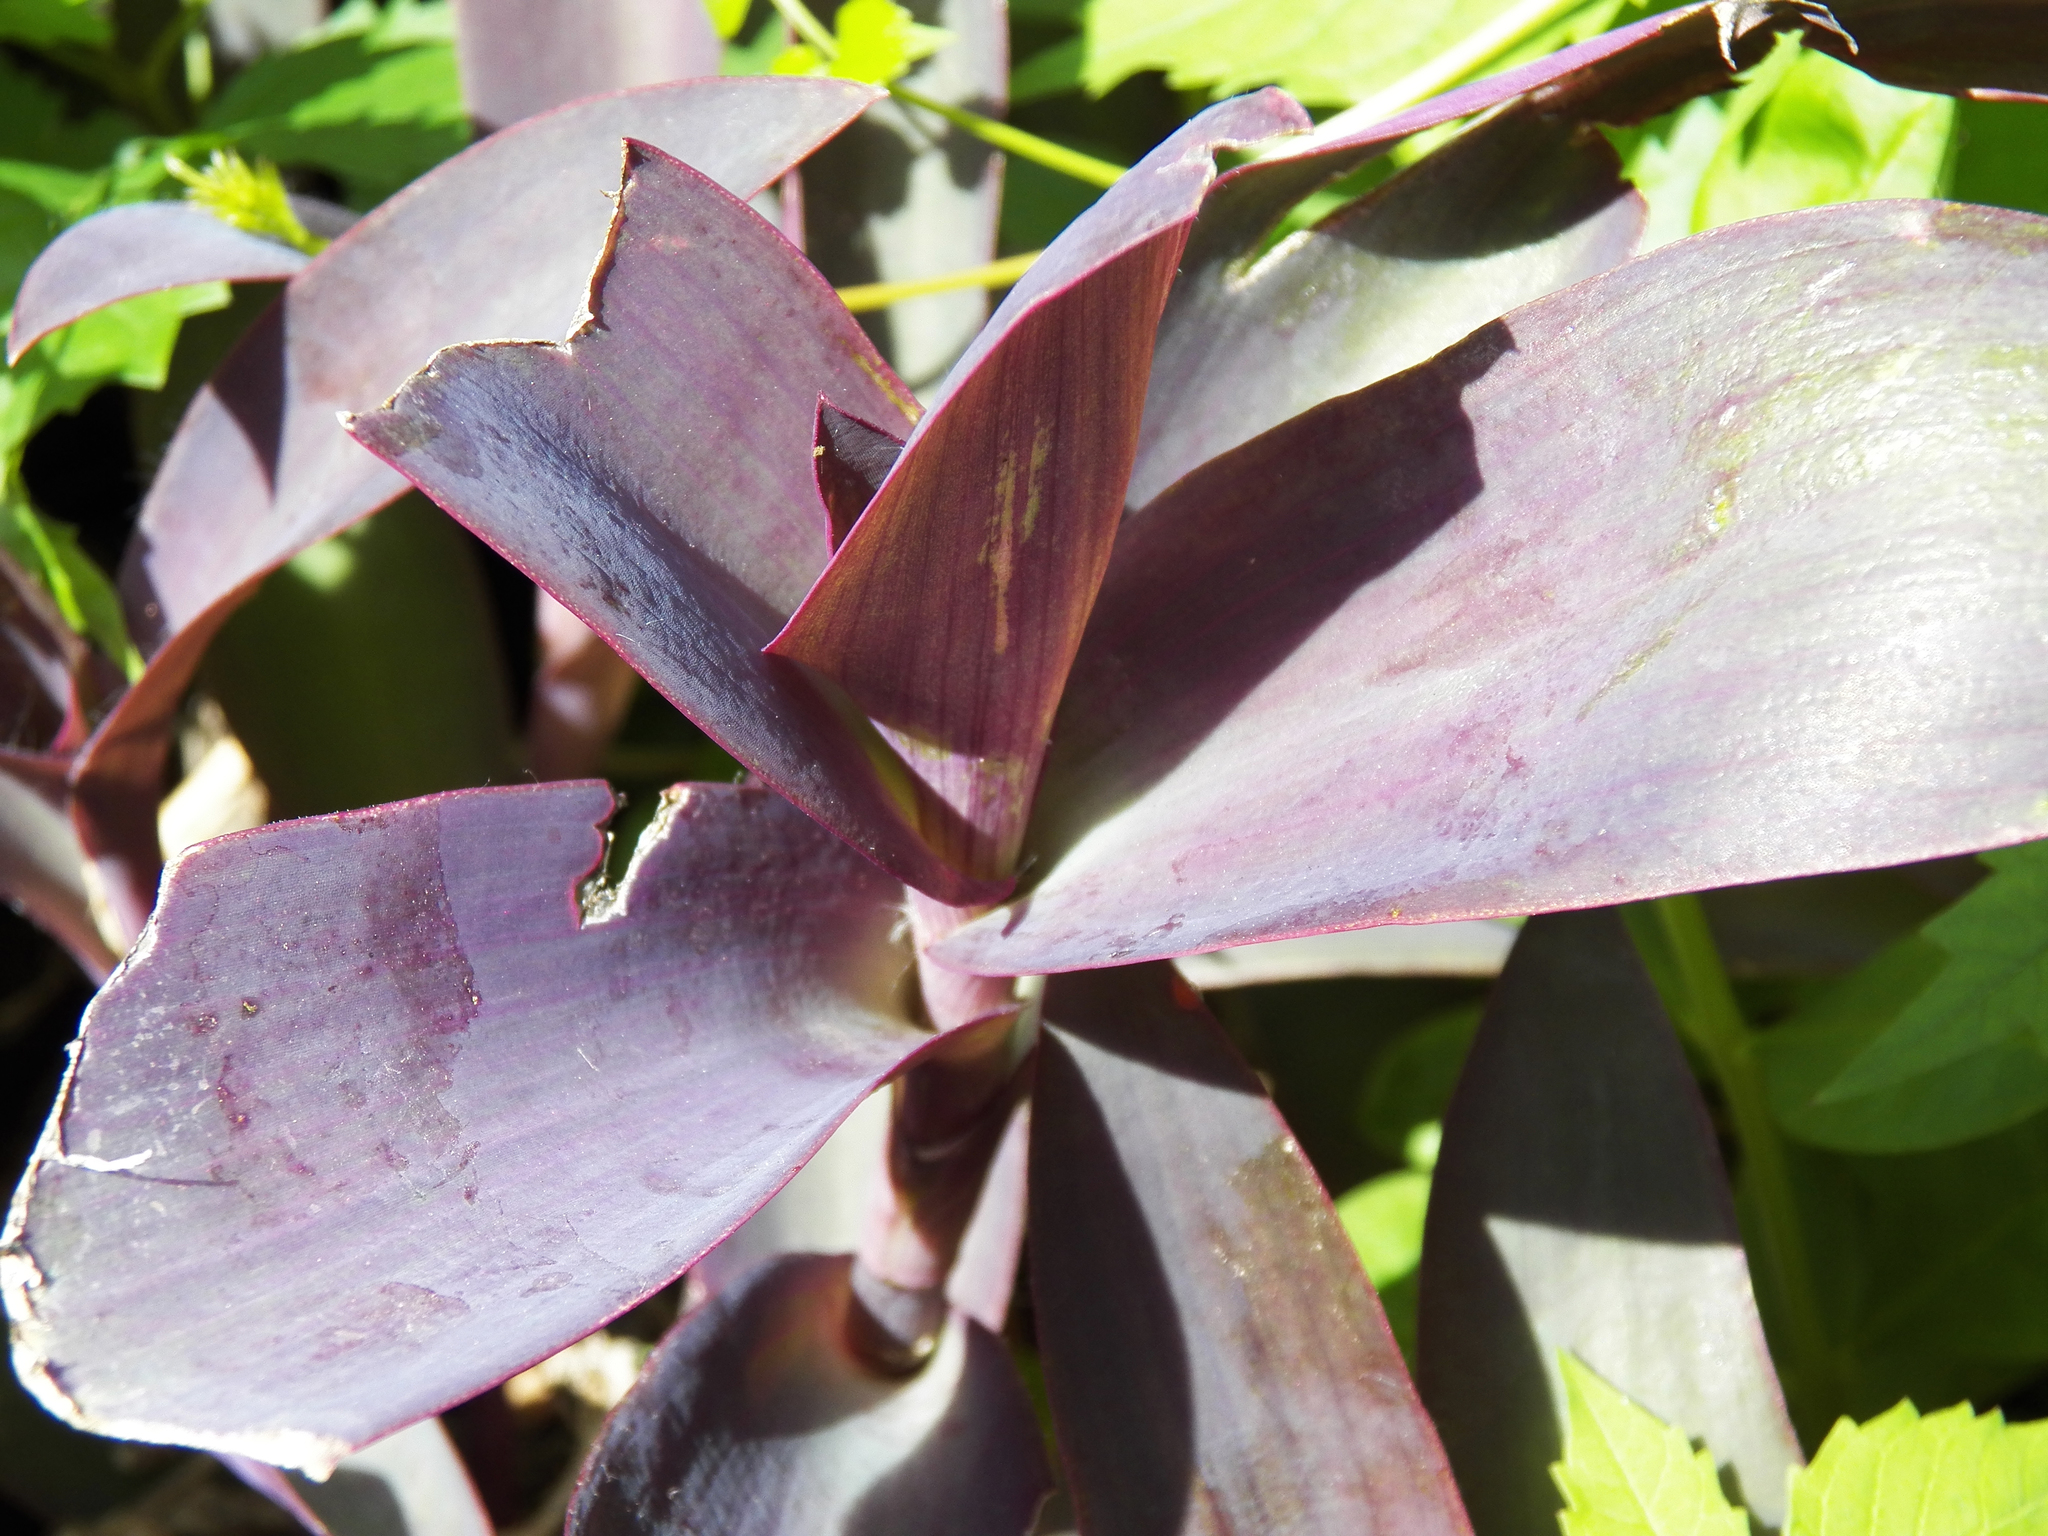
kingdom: Plantae
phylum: Tracheophyta
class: Liliopsida
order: Commelinales
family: Commelinaceae
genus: Tradescantia
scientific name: Tradescantia pallida
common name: Purpleheart
